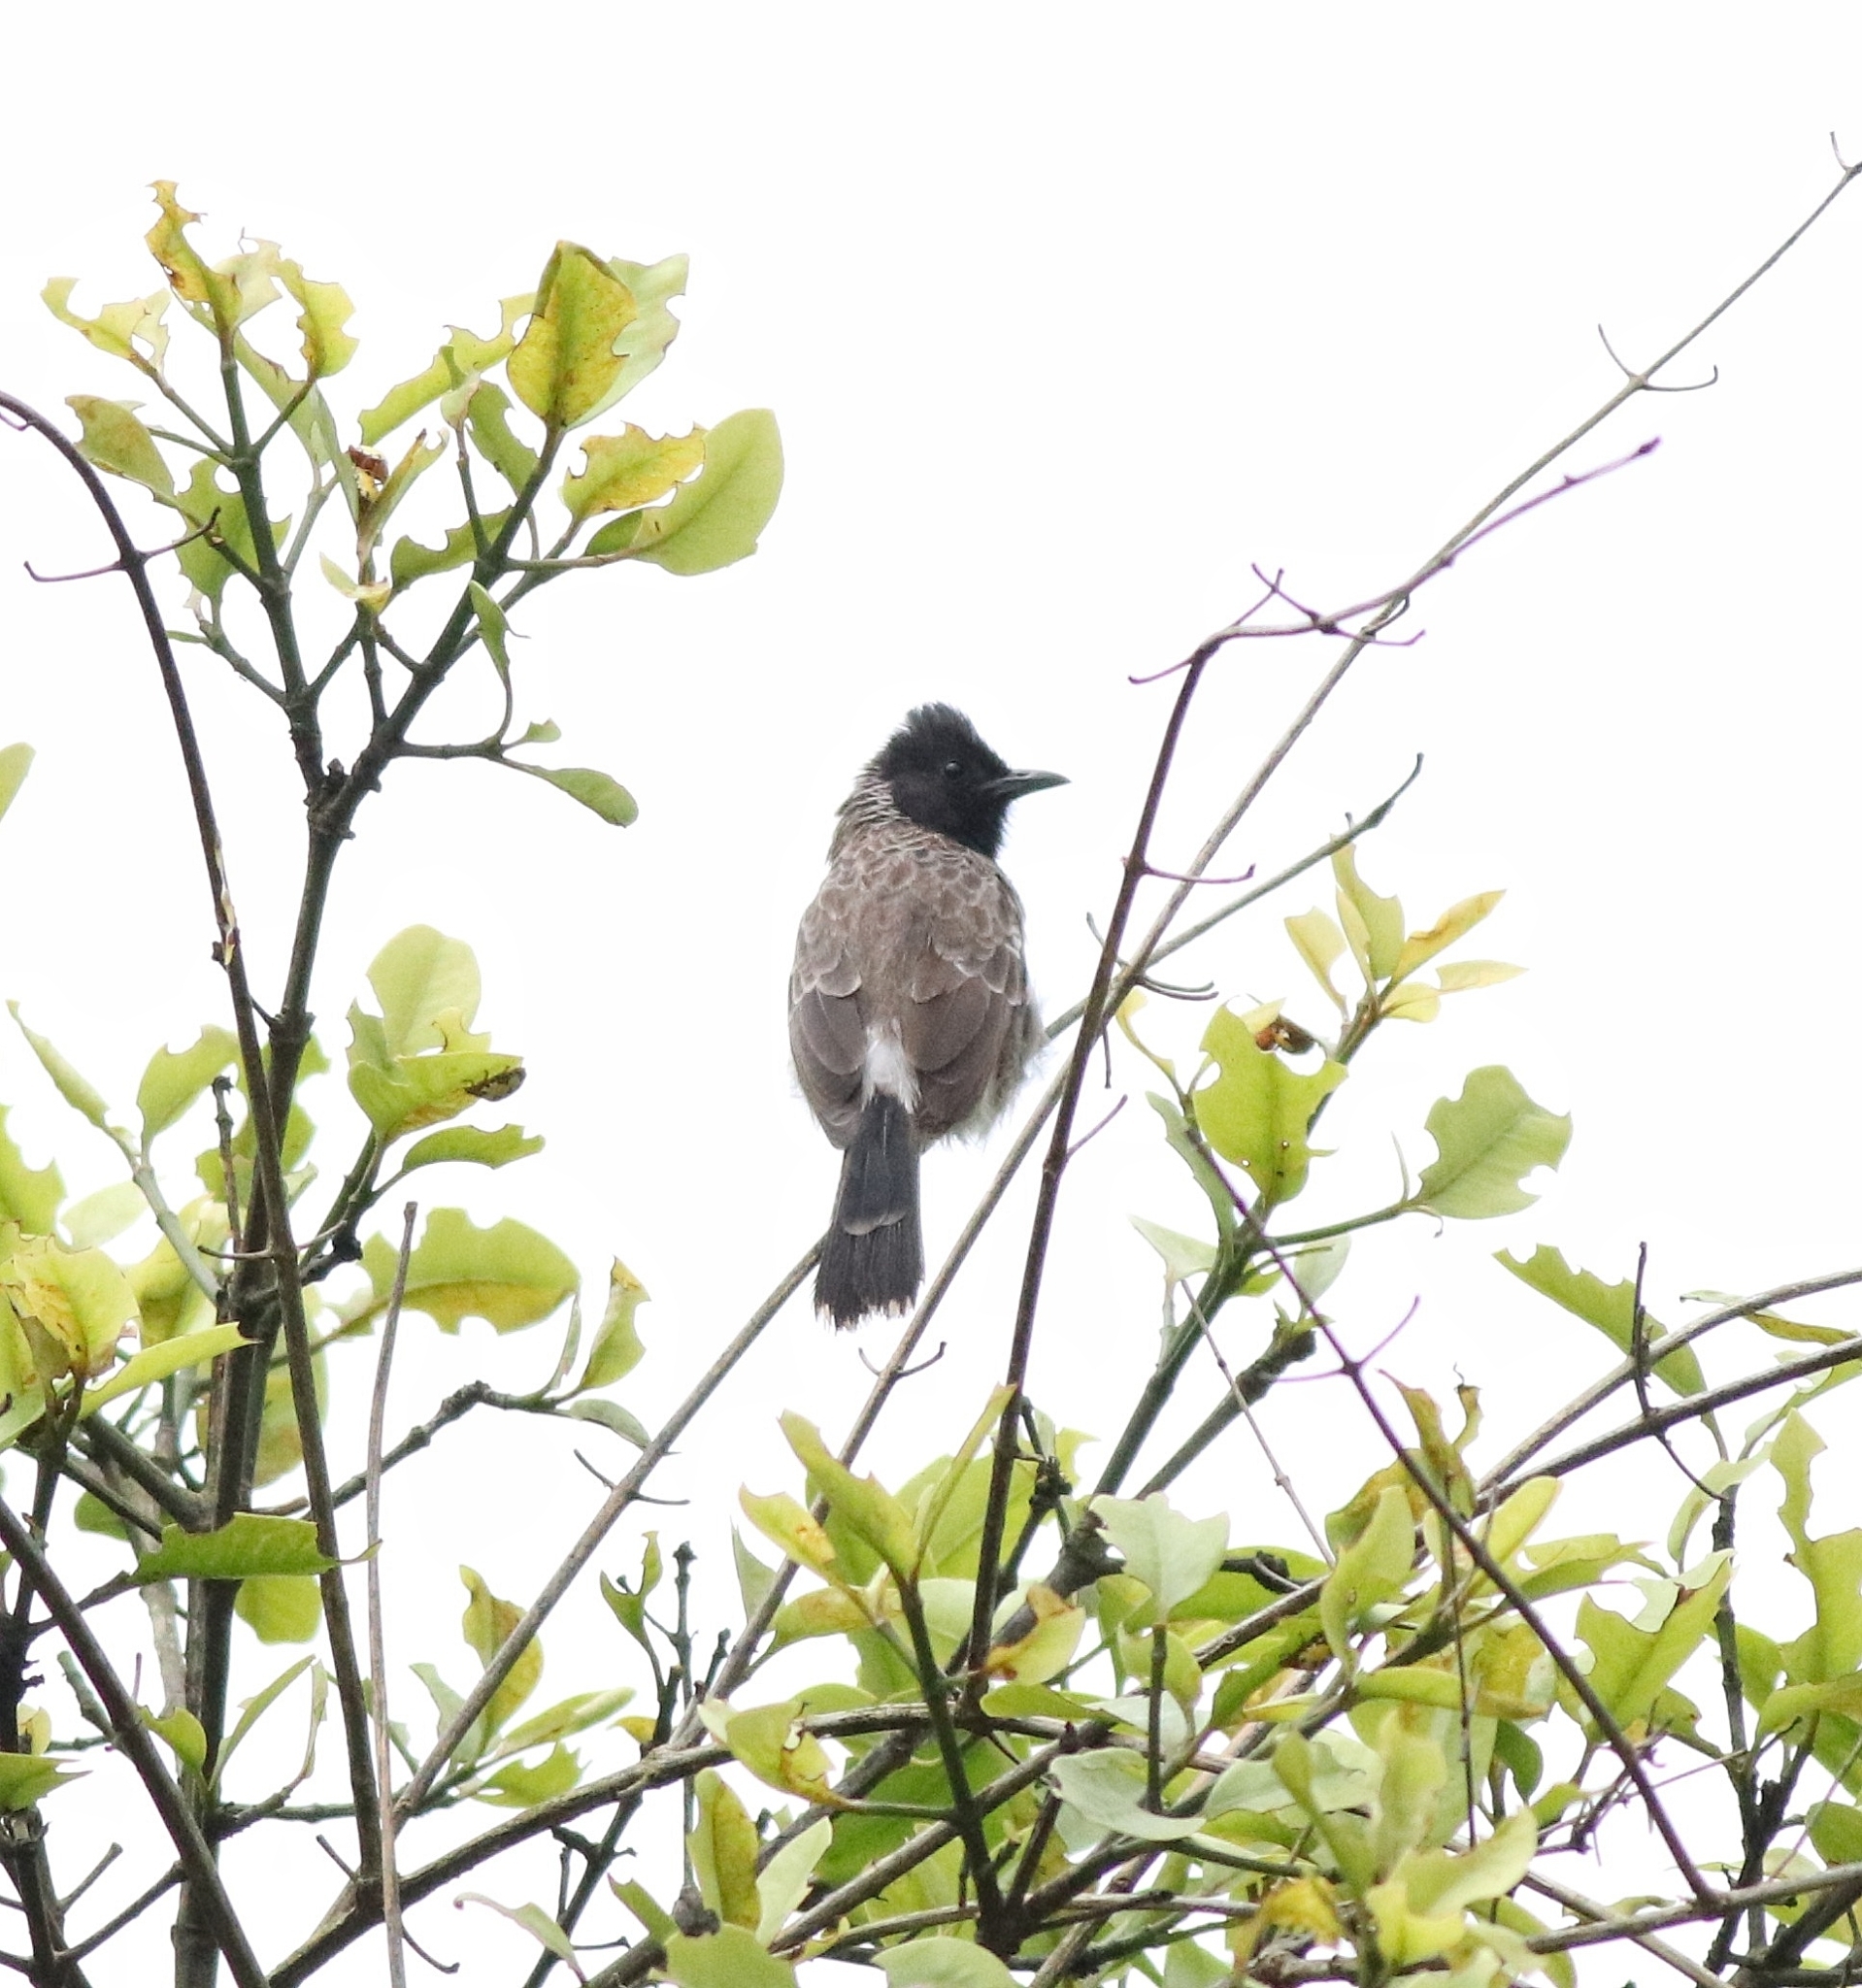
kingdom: Animalia
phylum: Chordata
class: Aves
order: Passeriformes
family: Pycnonotidae
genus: Pycnonotus
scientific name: Pycnonotus cafer
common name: Red-vented bulbul
